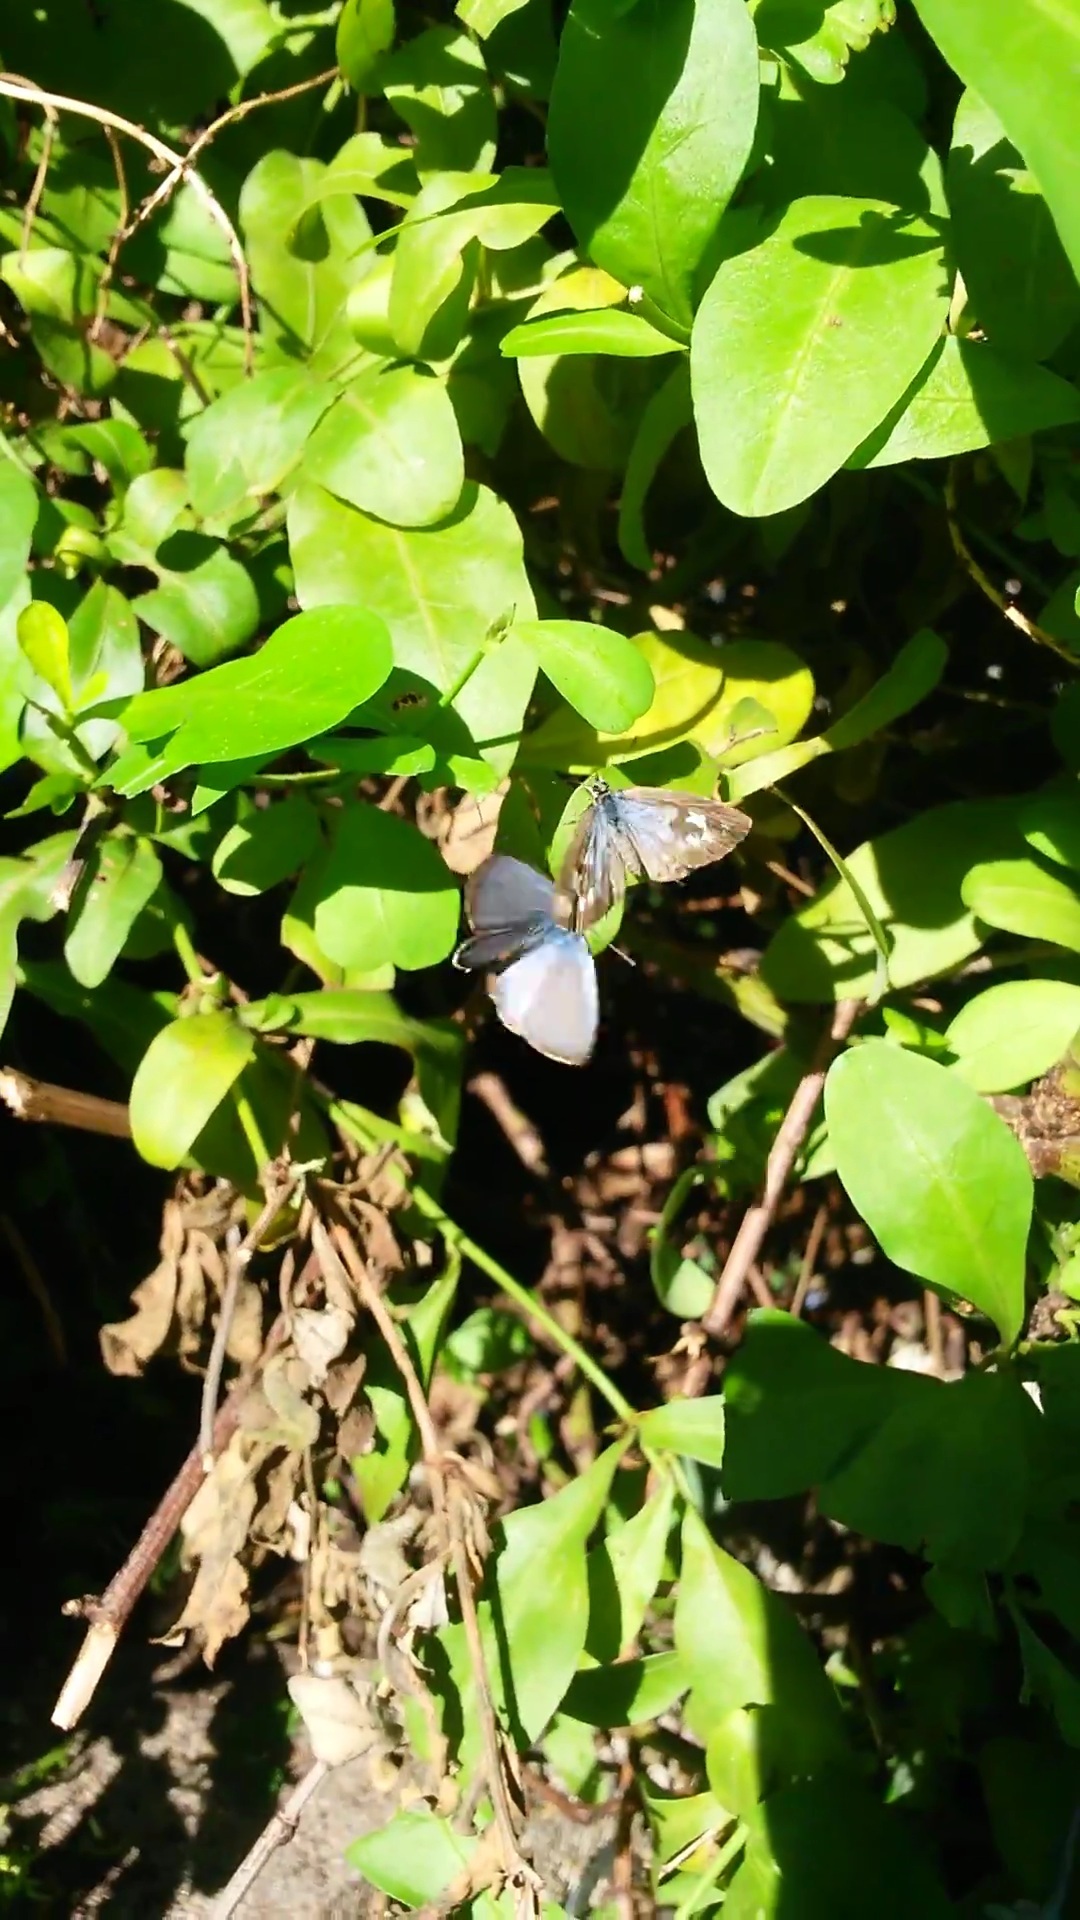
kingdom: Animalia
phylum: Arthropoda
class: Insecta
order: Lepidoptera
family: Lycaenidae
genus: Leptotes
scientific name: Leptotes plinius
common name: Zebra blue
